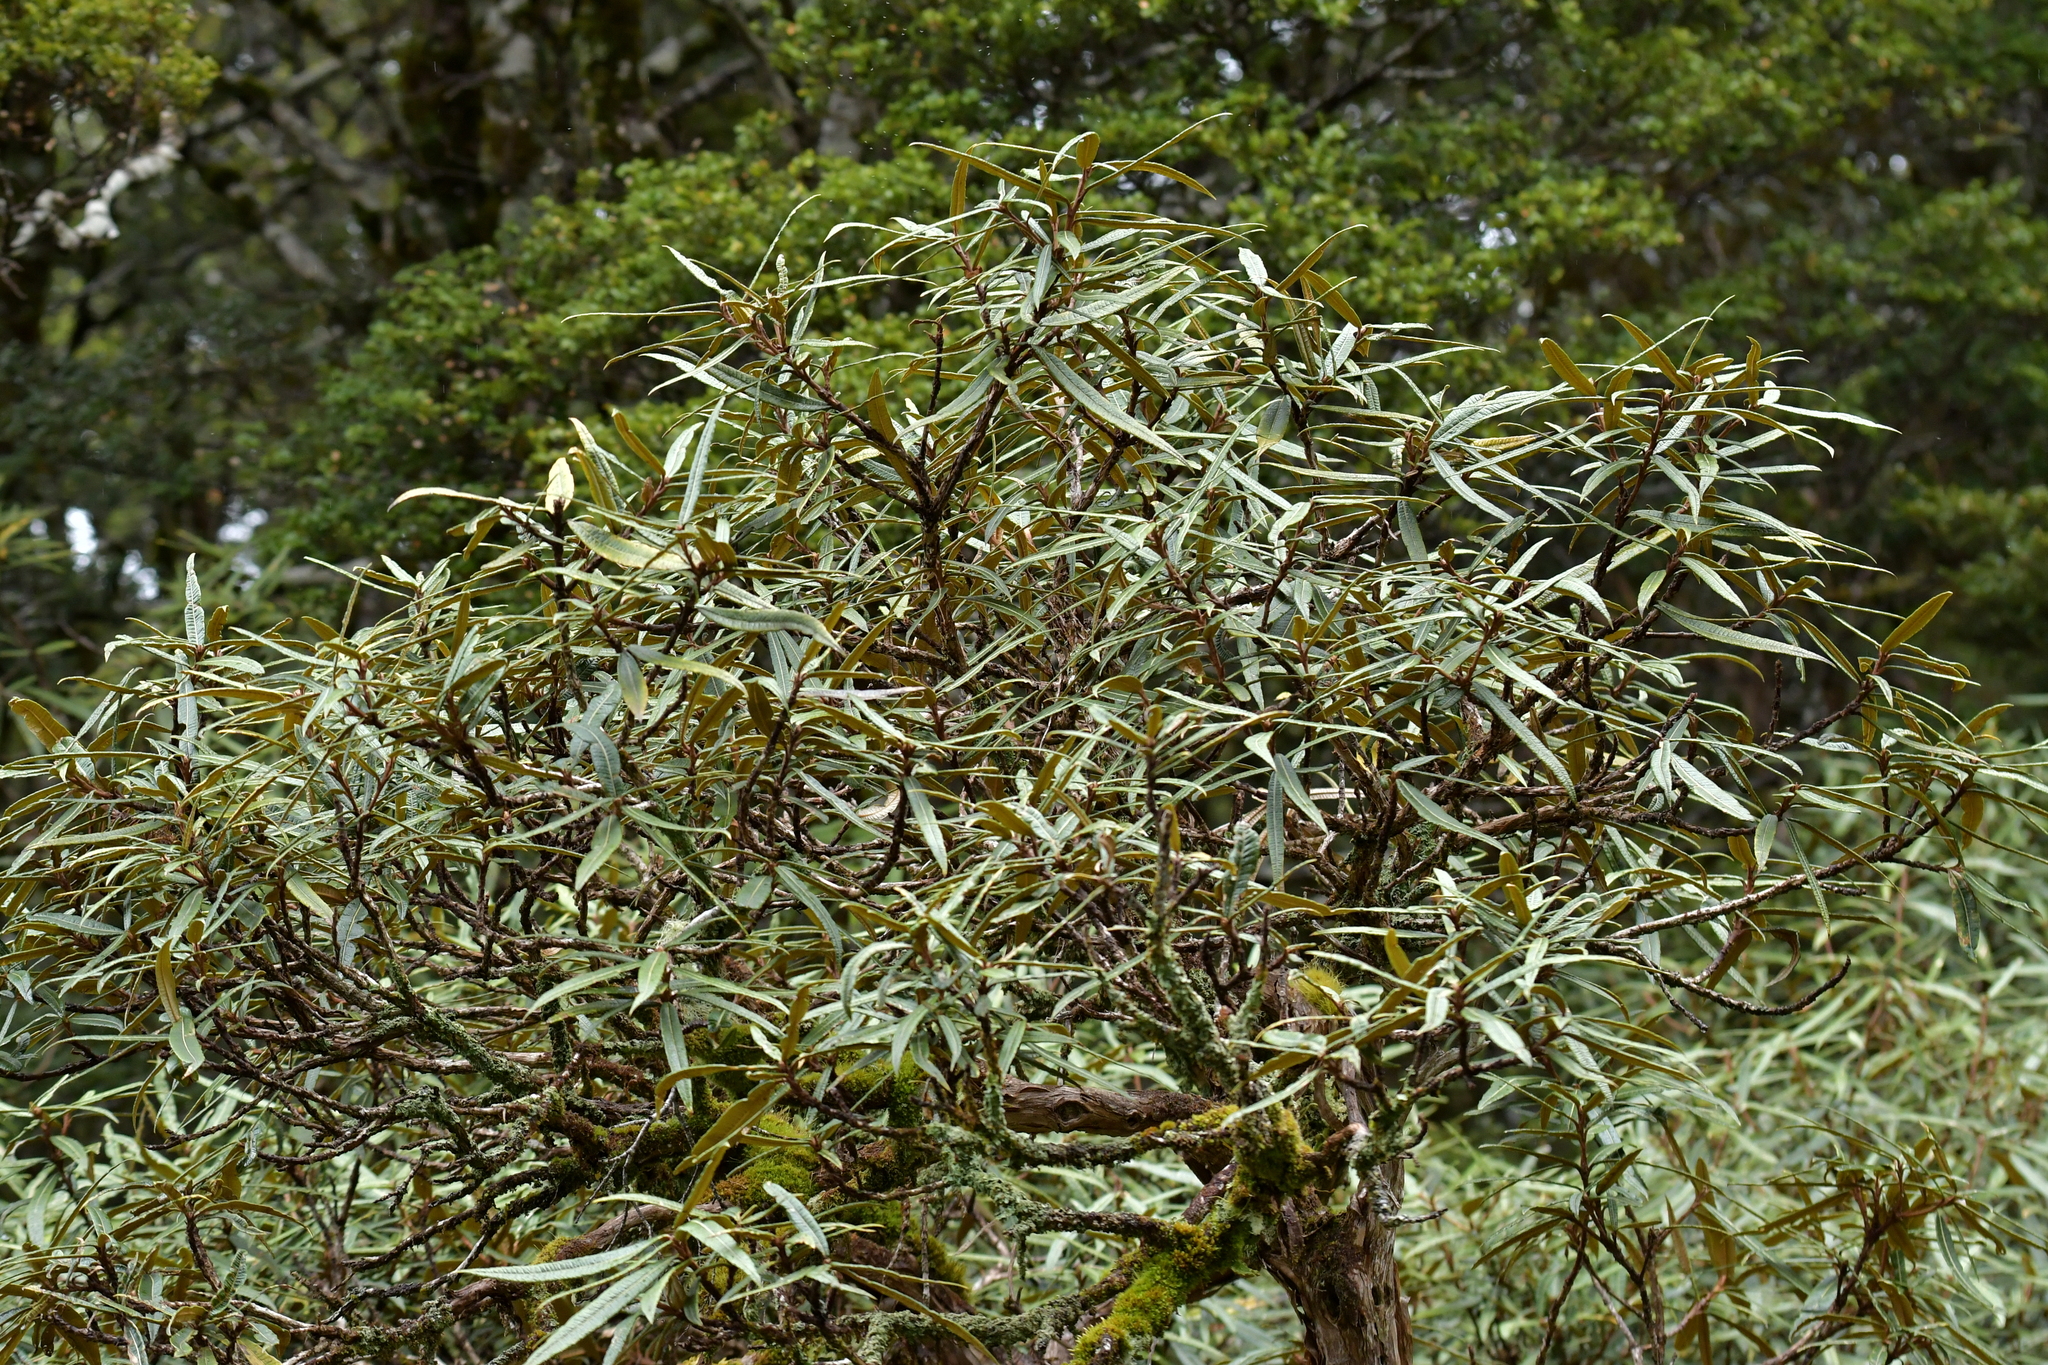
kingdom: Plantae
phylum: Tracheophyta
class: Magnoliopsida
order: Asterales
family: Asteraceae
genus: Olearia
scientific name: Olearia lacunosa
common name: Lancewood tree daisy
